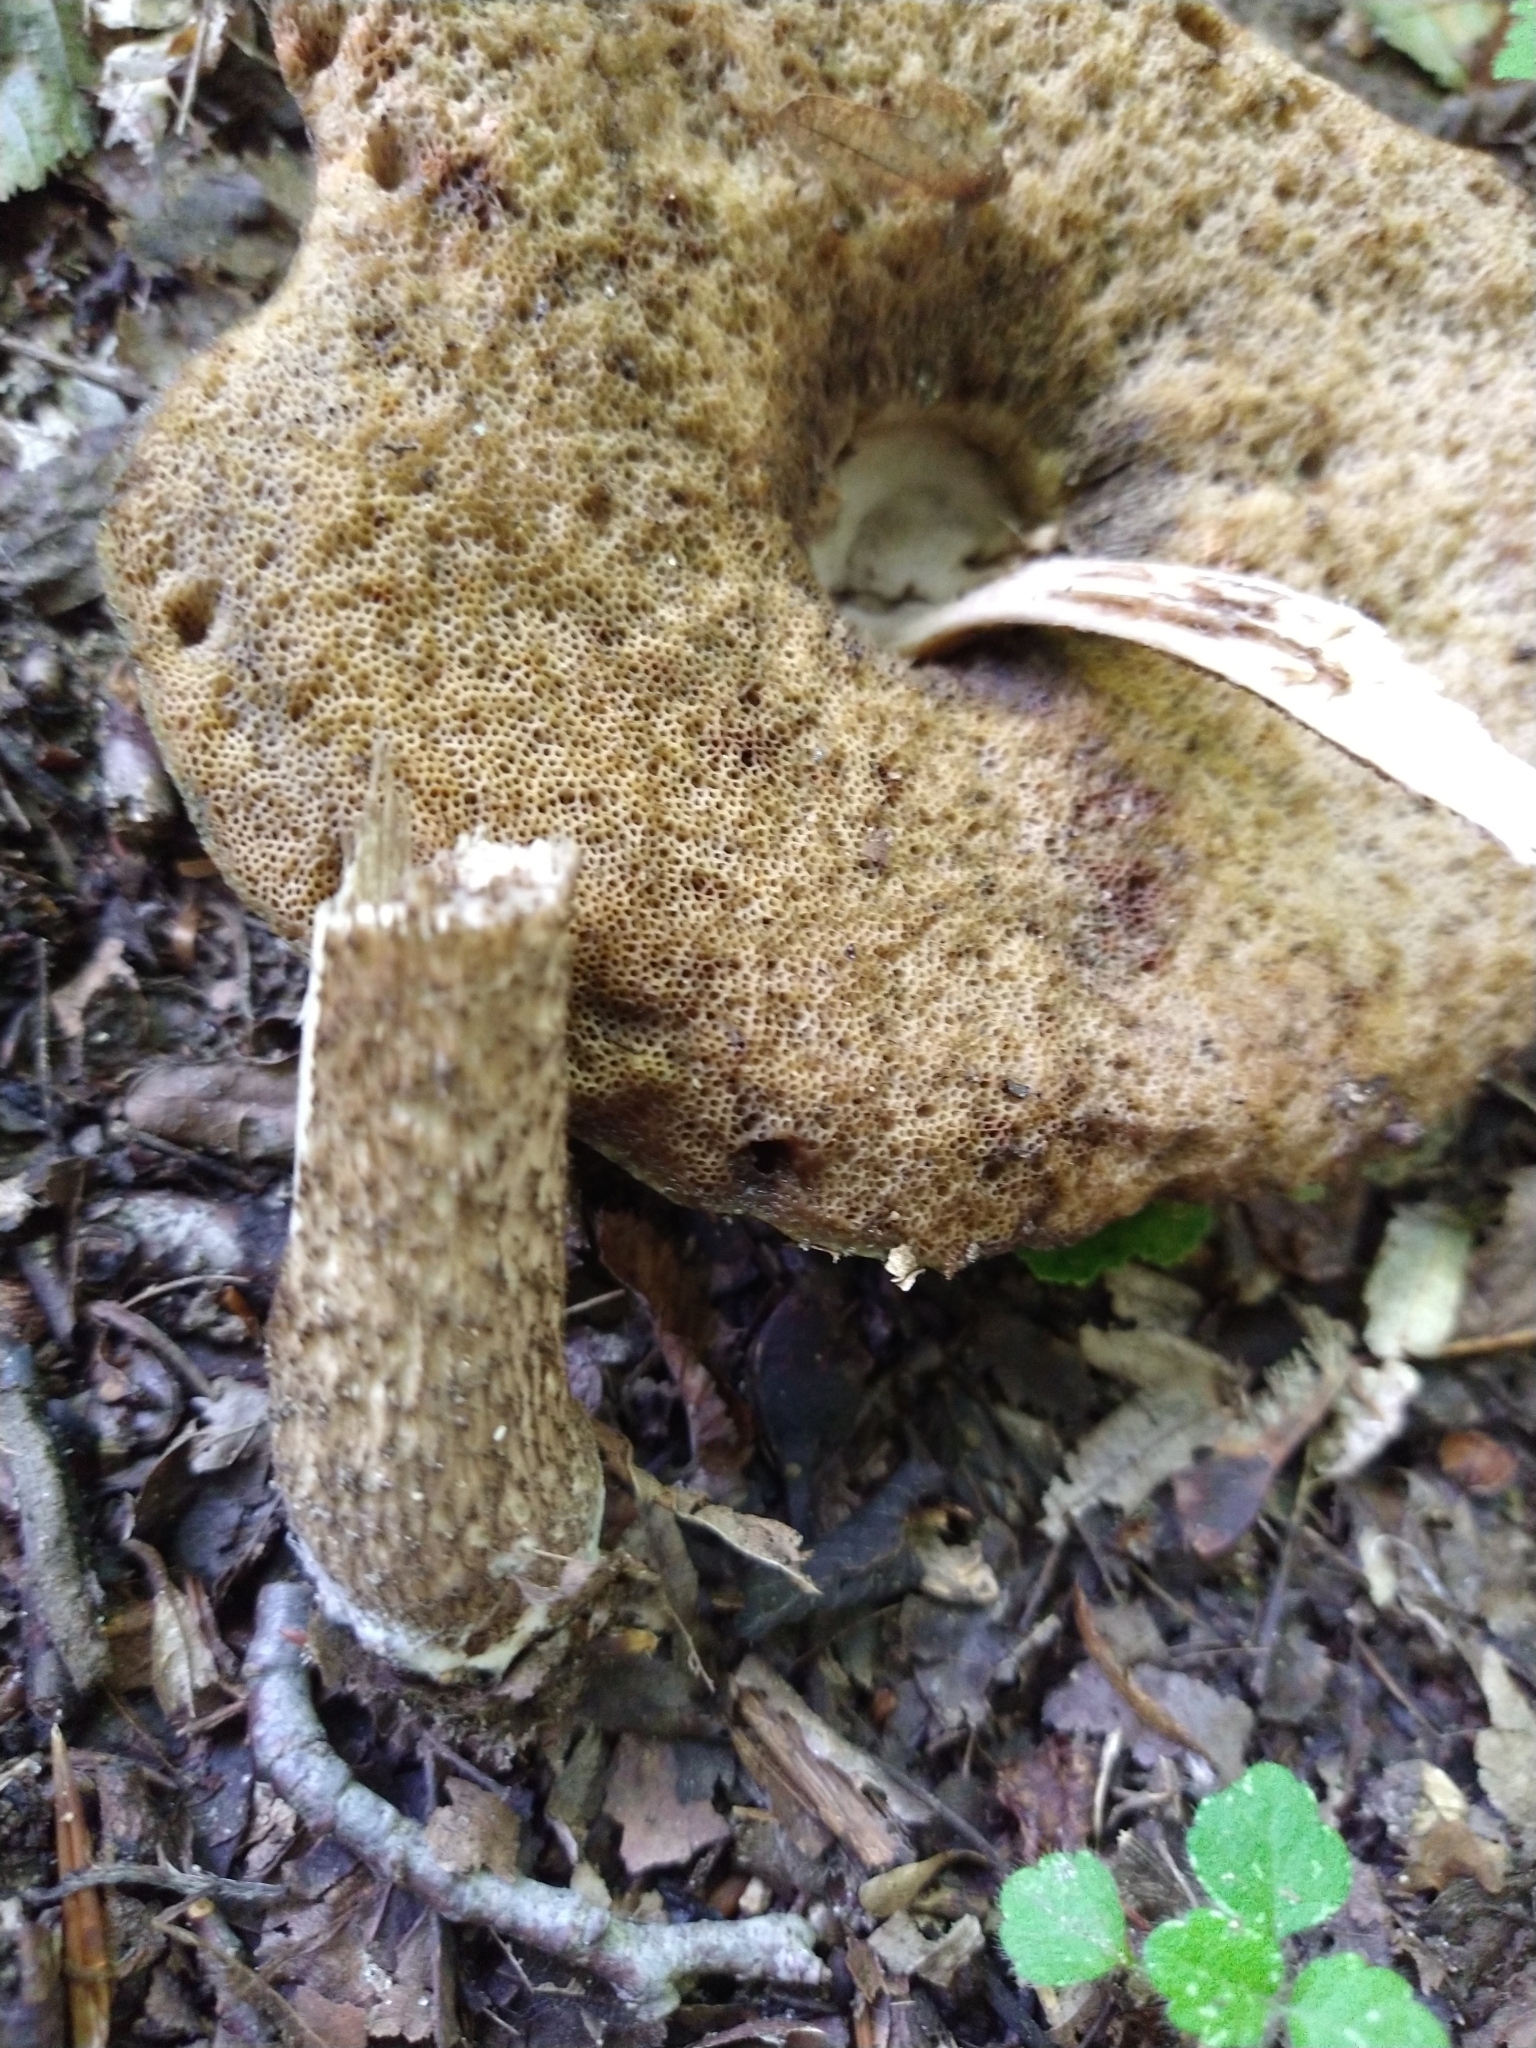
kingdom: Fungi
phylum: Basidiomycota
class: Agaricomycetes
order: Boletales
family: Boletaceae
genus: Leccinellum
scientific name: Leccinellum pseudoscabrum
